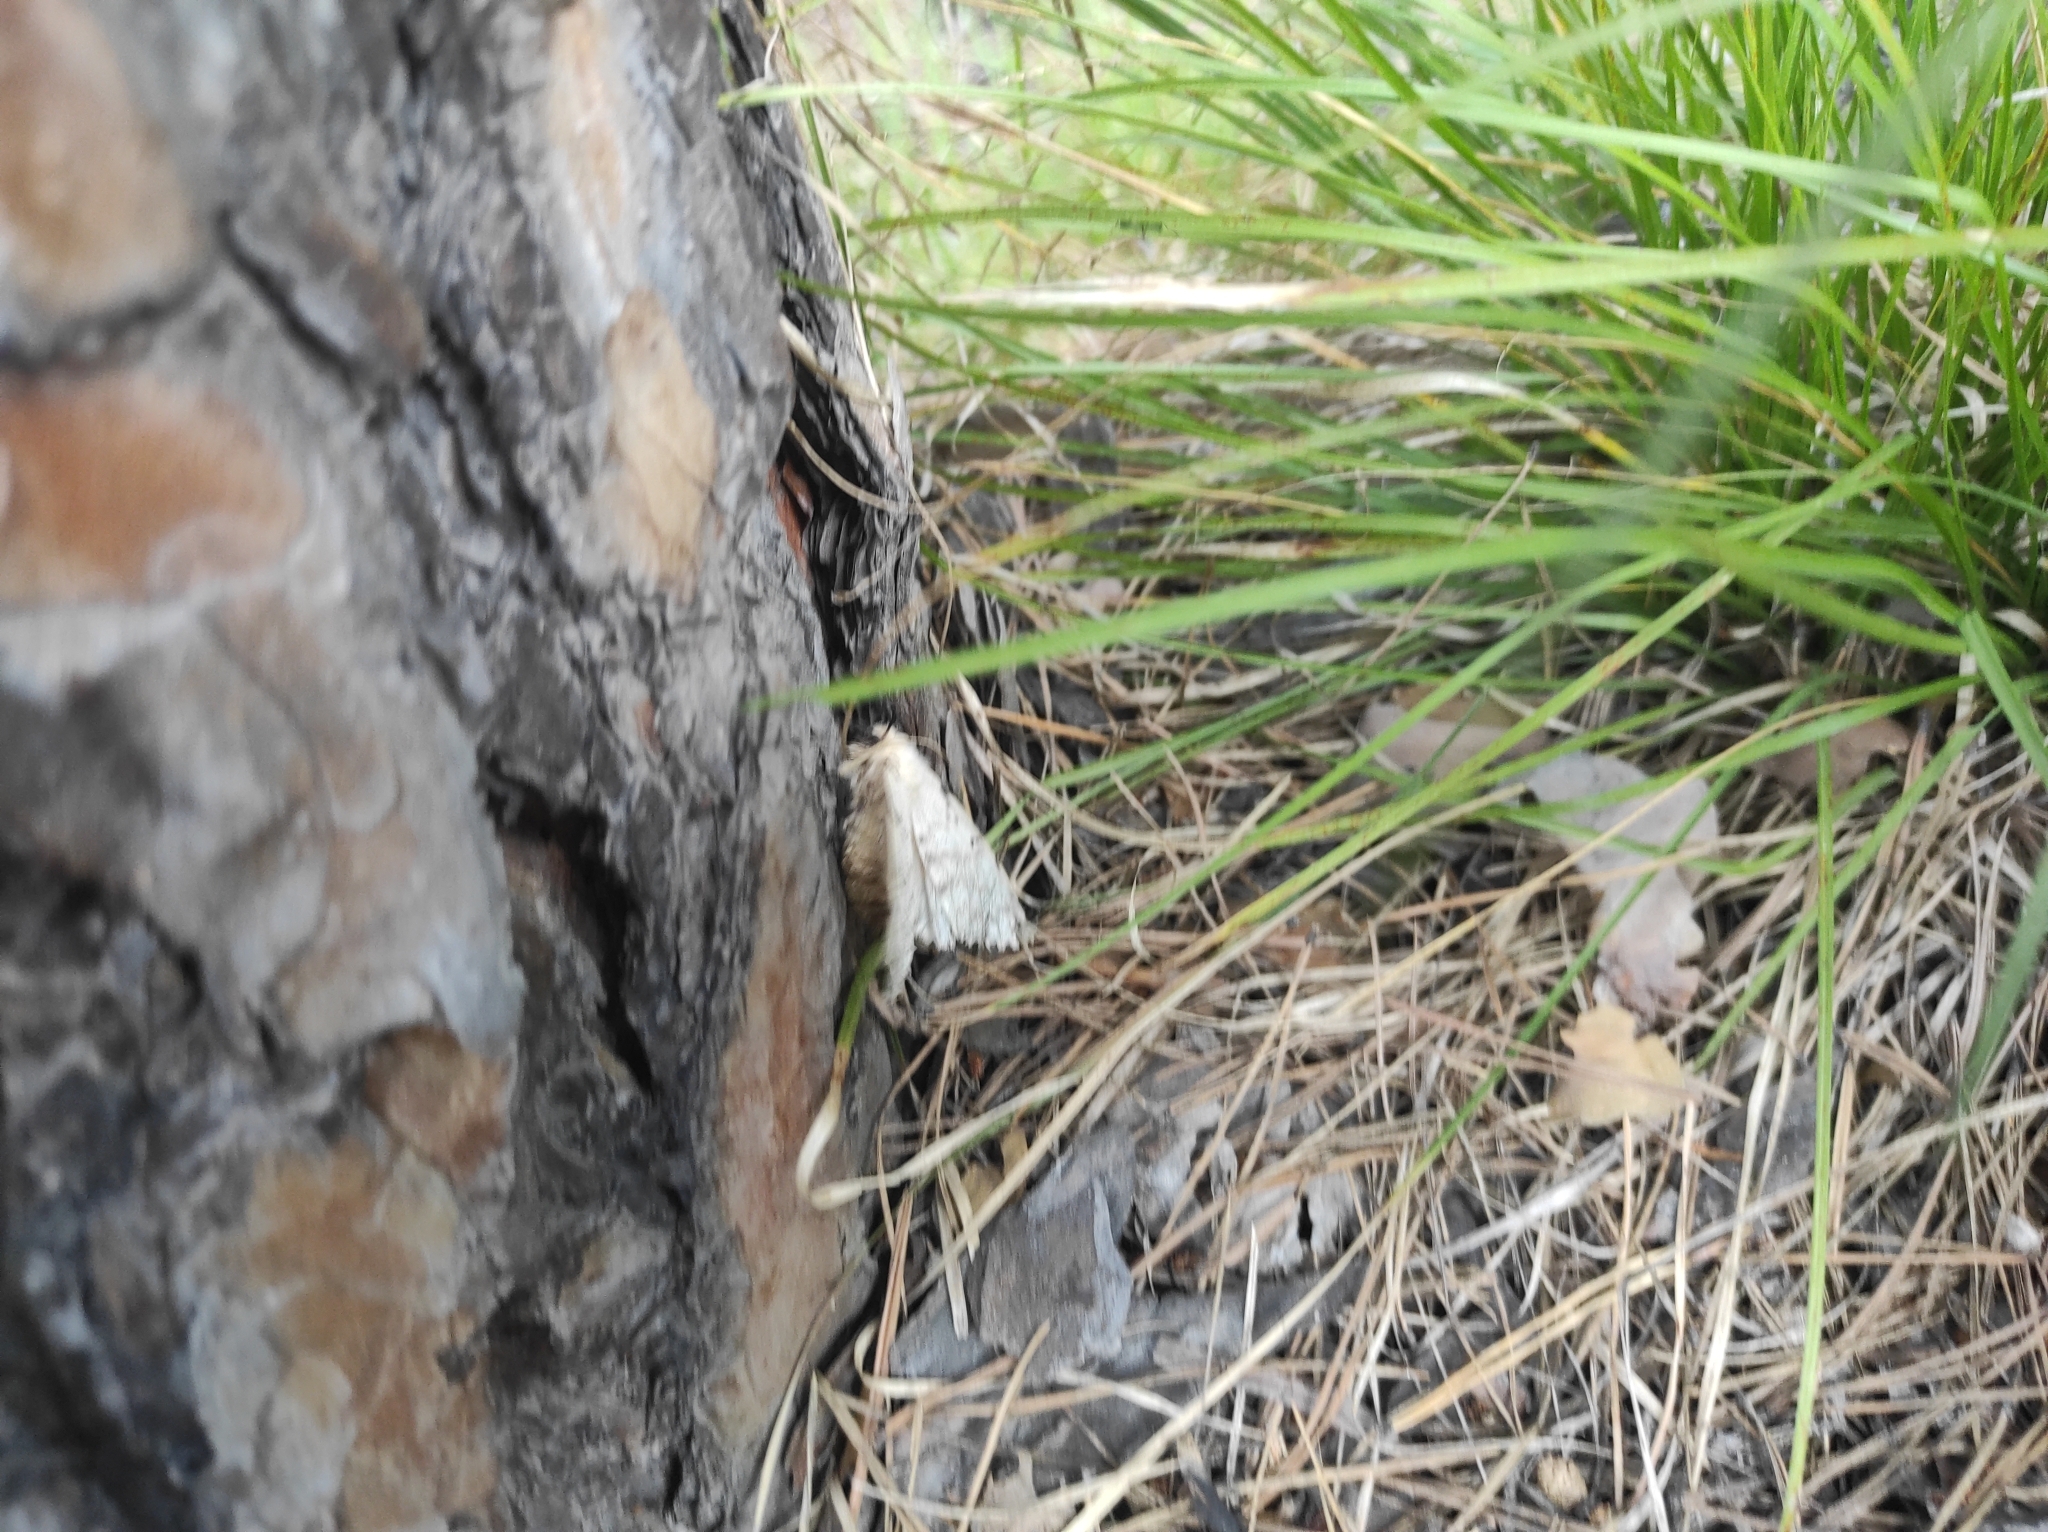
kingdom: Animalia
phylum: Arthropoda
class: Insecta
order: Lepidoptera
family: Erebidae
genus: Lymantria
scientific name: Lymantria dispar
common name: Gypsy moth
